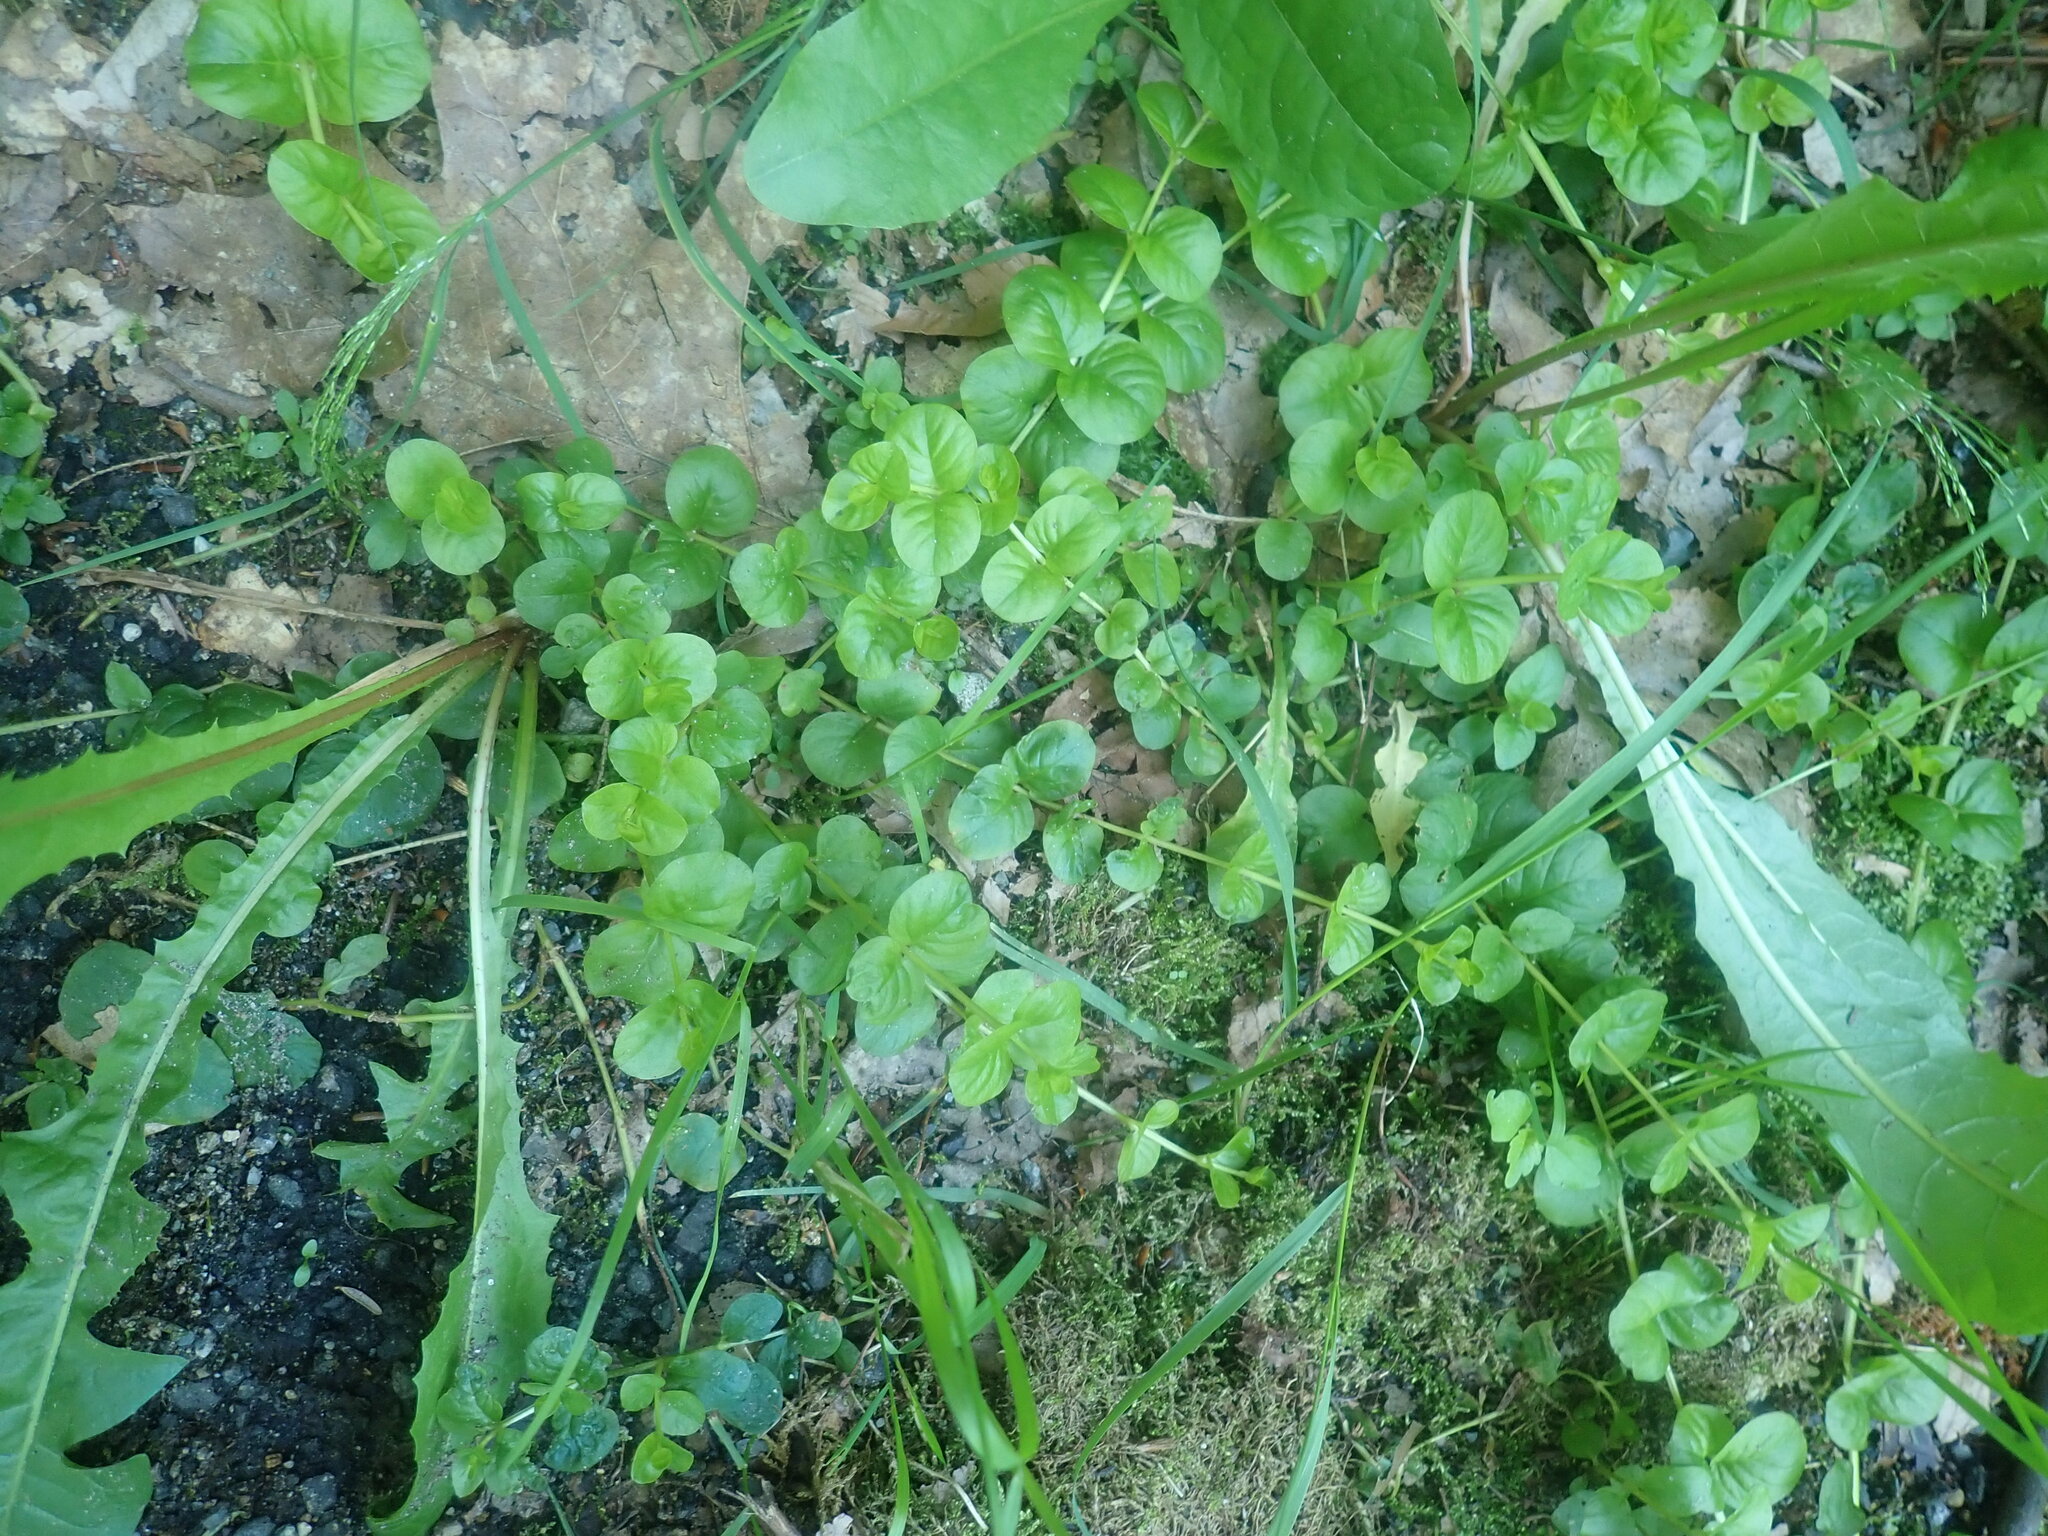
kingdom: Plantae
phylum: Tracheophyta
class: Magnoliopsida
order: Ericales
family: Primulaceae
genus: Lysimachia
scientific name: Lysimachia nummularia
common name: Moneywort
